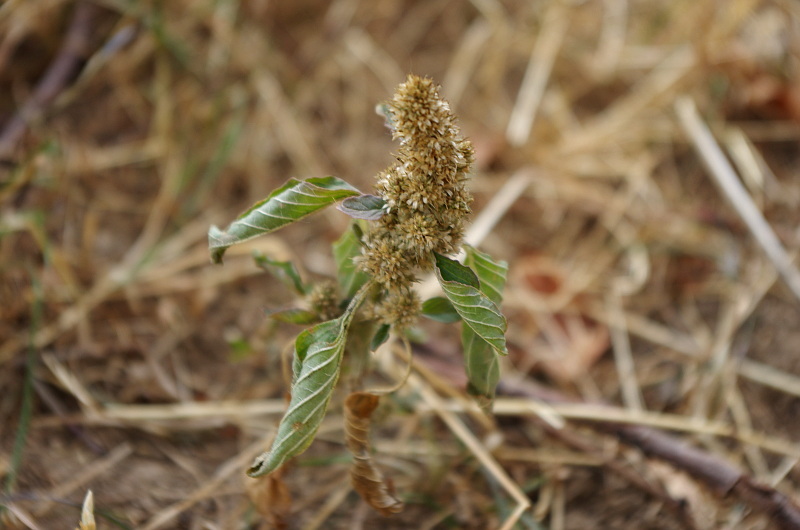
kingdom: Plantae
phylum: Tracheophyta
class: Magnoliopsida
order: Caryophyllales
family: Amaranthaceae
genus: Amaranthus
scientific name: Amaranthus retroflexus
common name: Redroot amaranth
